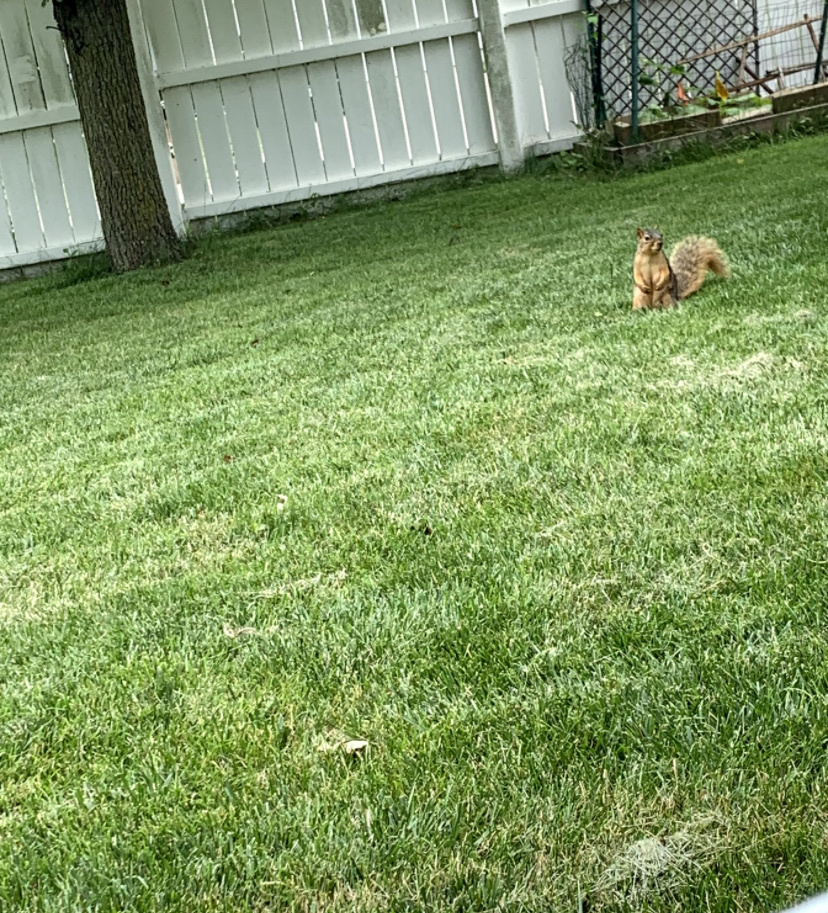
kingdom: Animalia
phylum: Chordata
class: Mammalia
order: Rodentia
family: Sciuridae
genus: Sciurus
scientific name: Sciurus niger
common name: Fox squirrel
